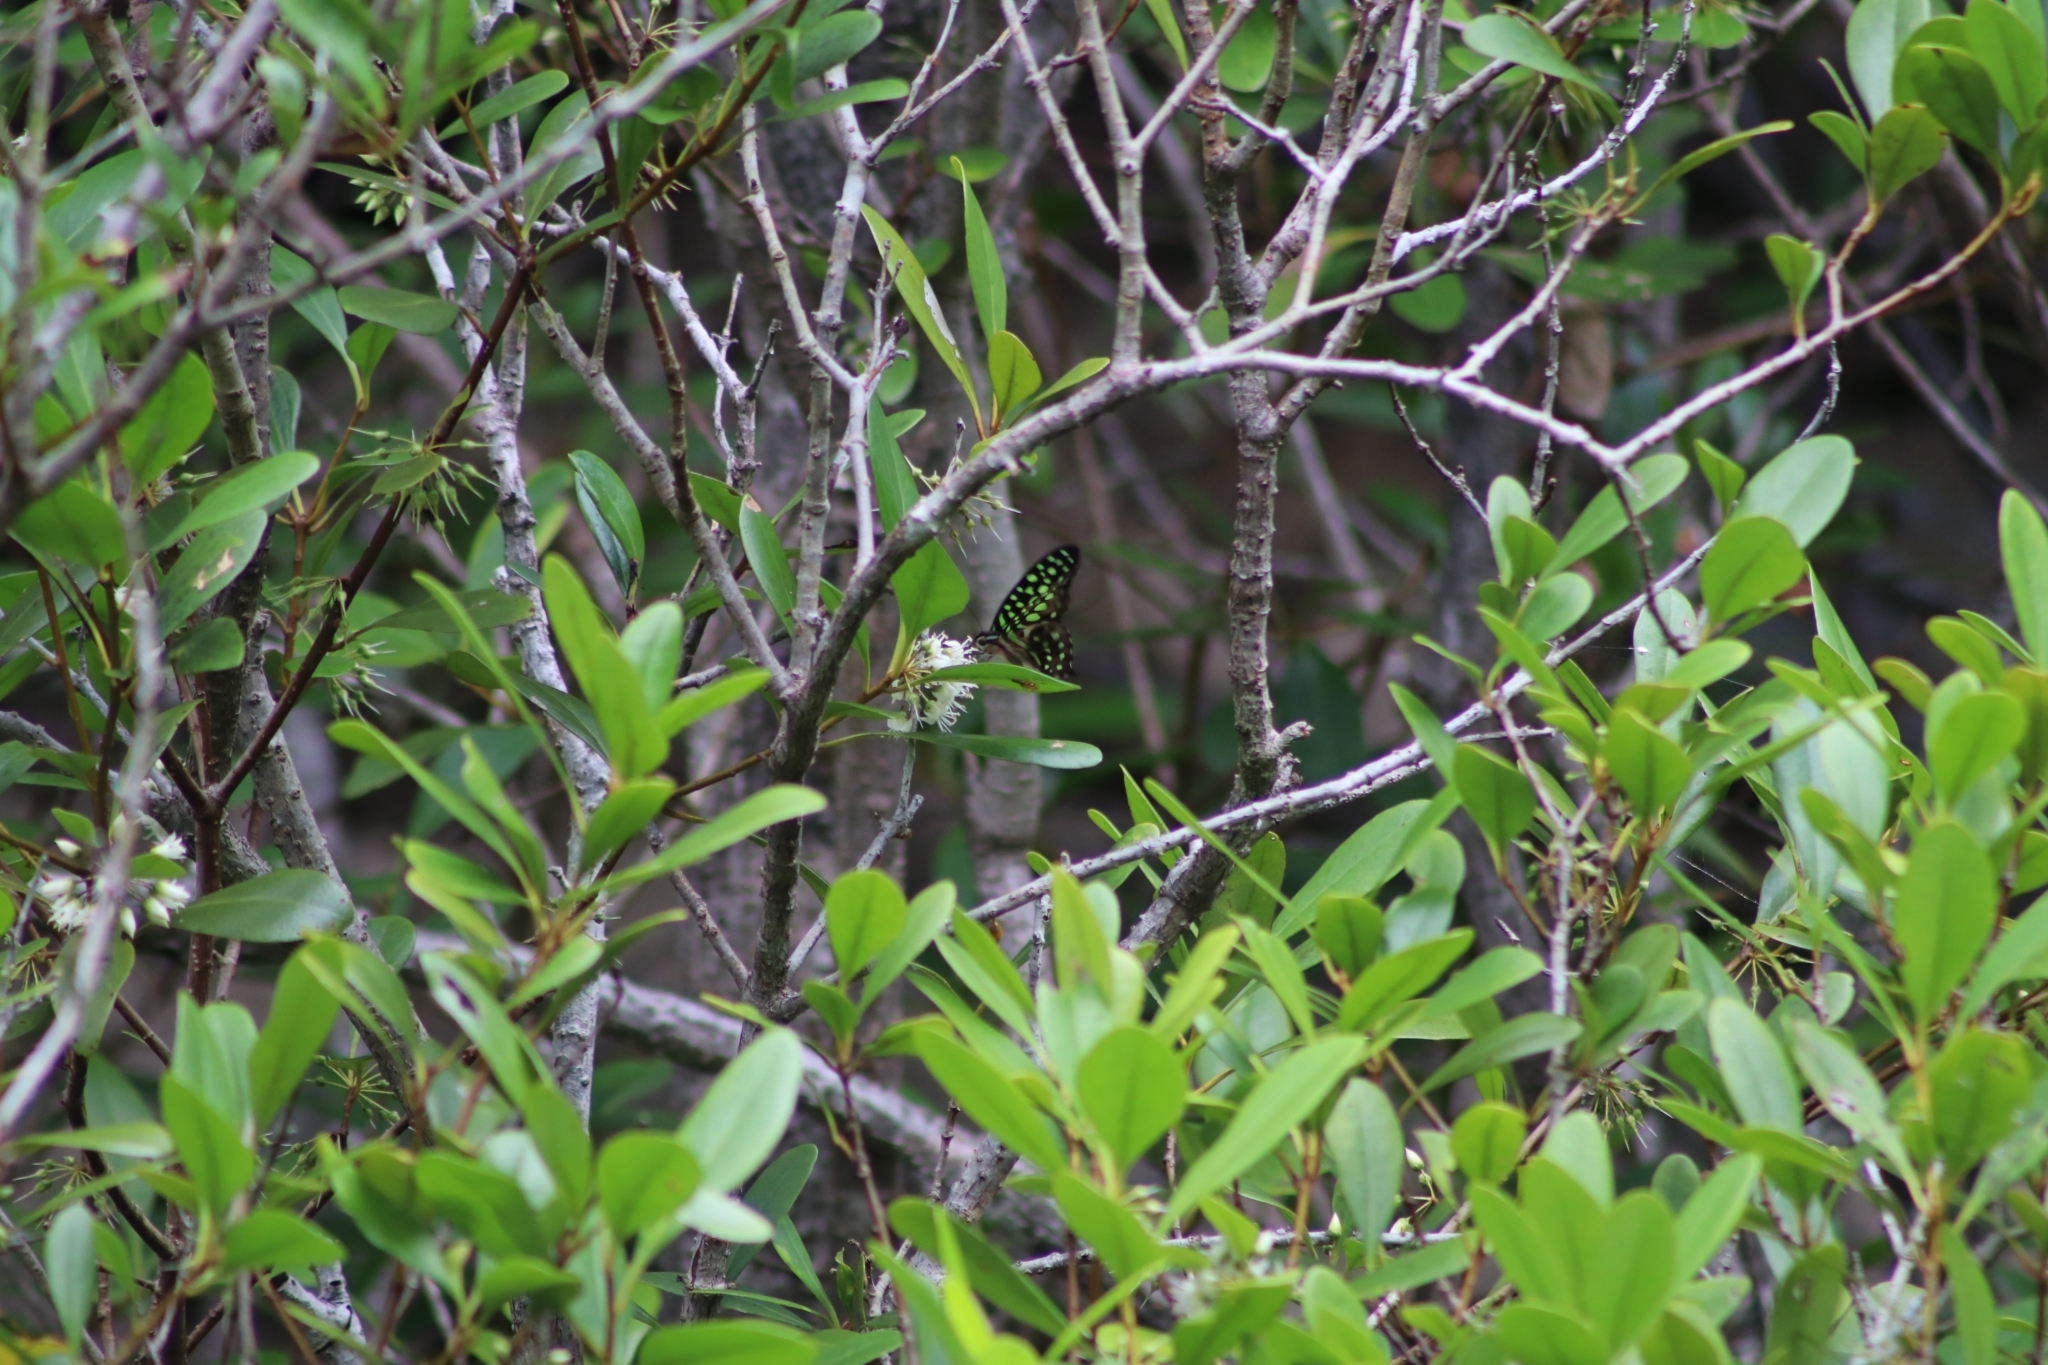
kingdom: Animalia
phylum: Arthropoda
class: Insecta
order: Lepidoptera
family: Papilionidae
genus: Graphium
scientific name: Graphium agamemnon
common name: Tailed jay
